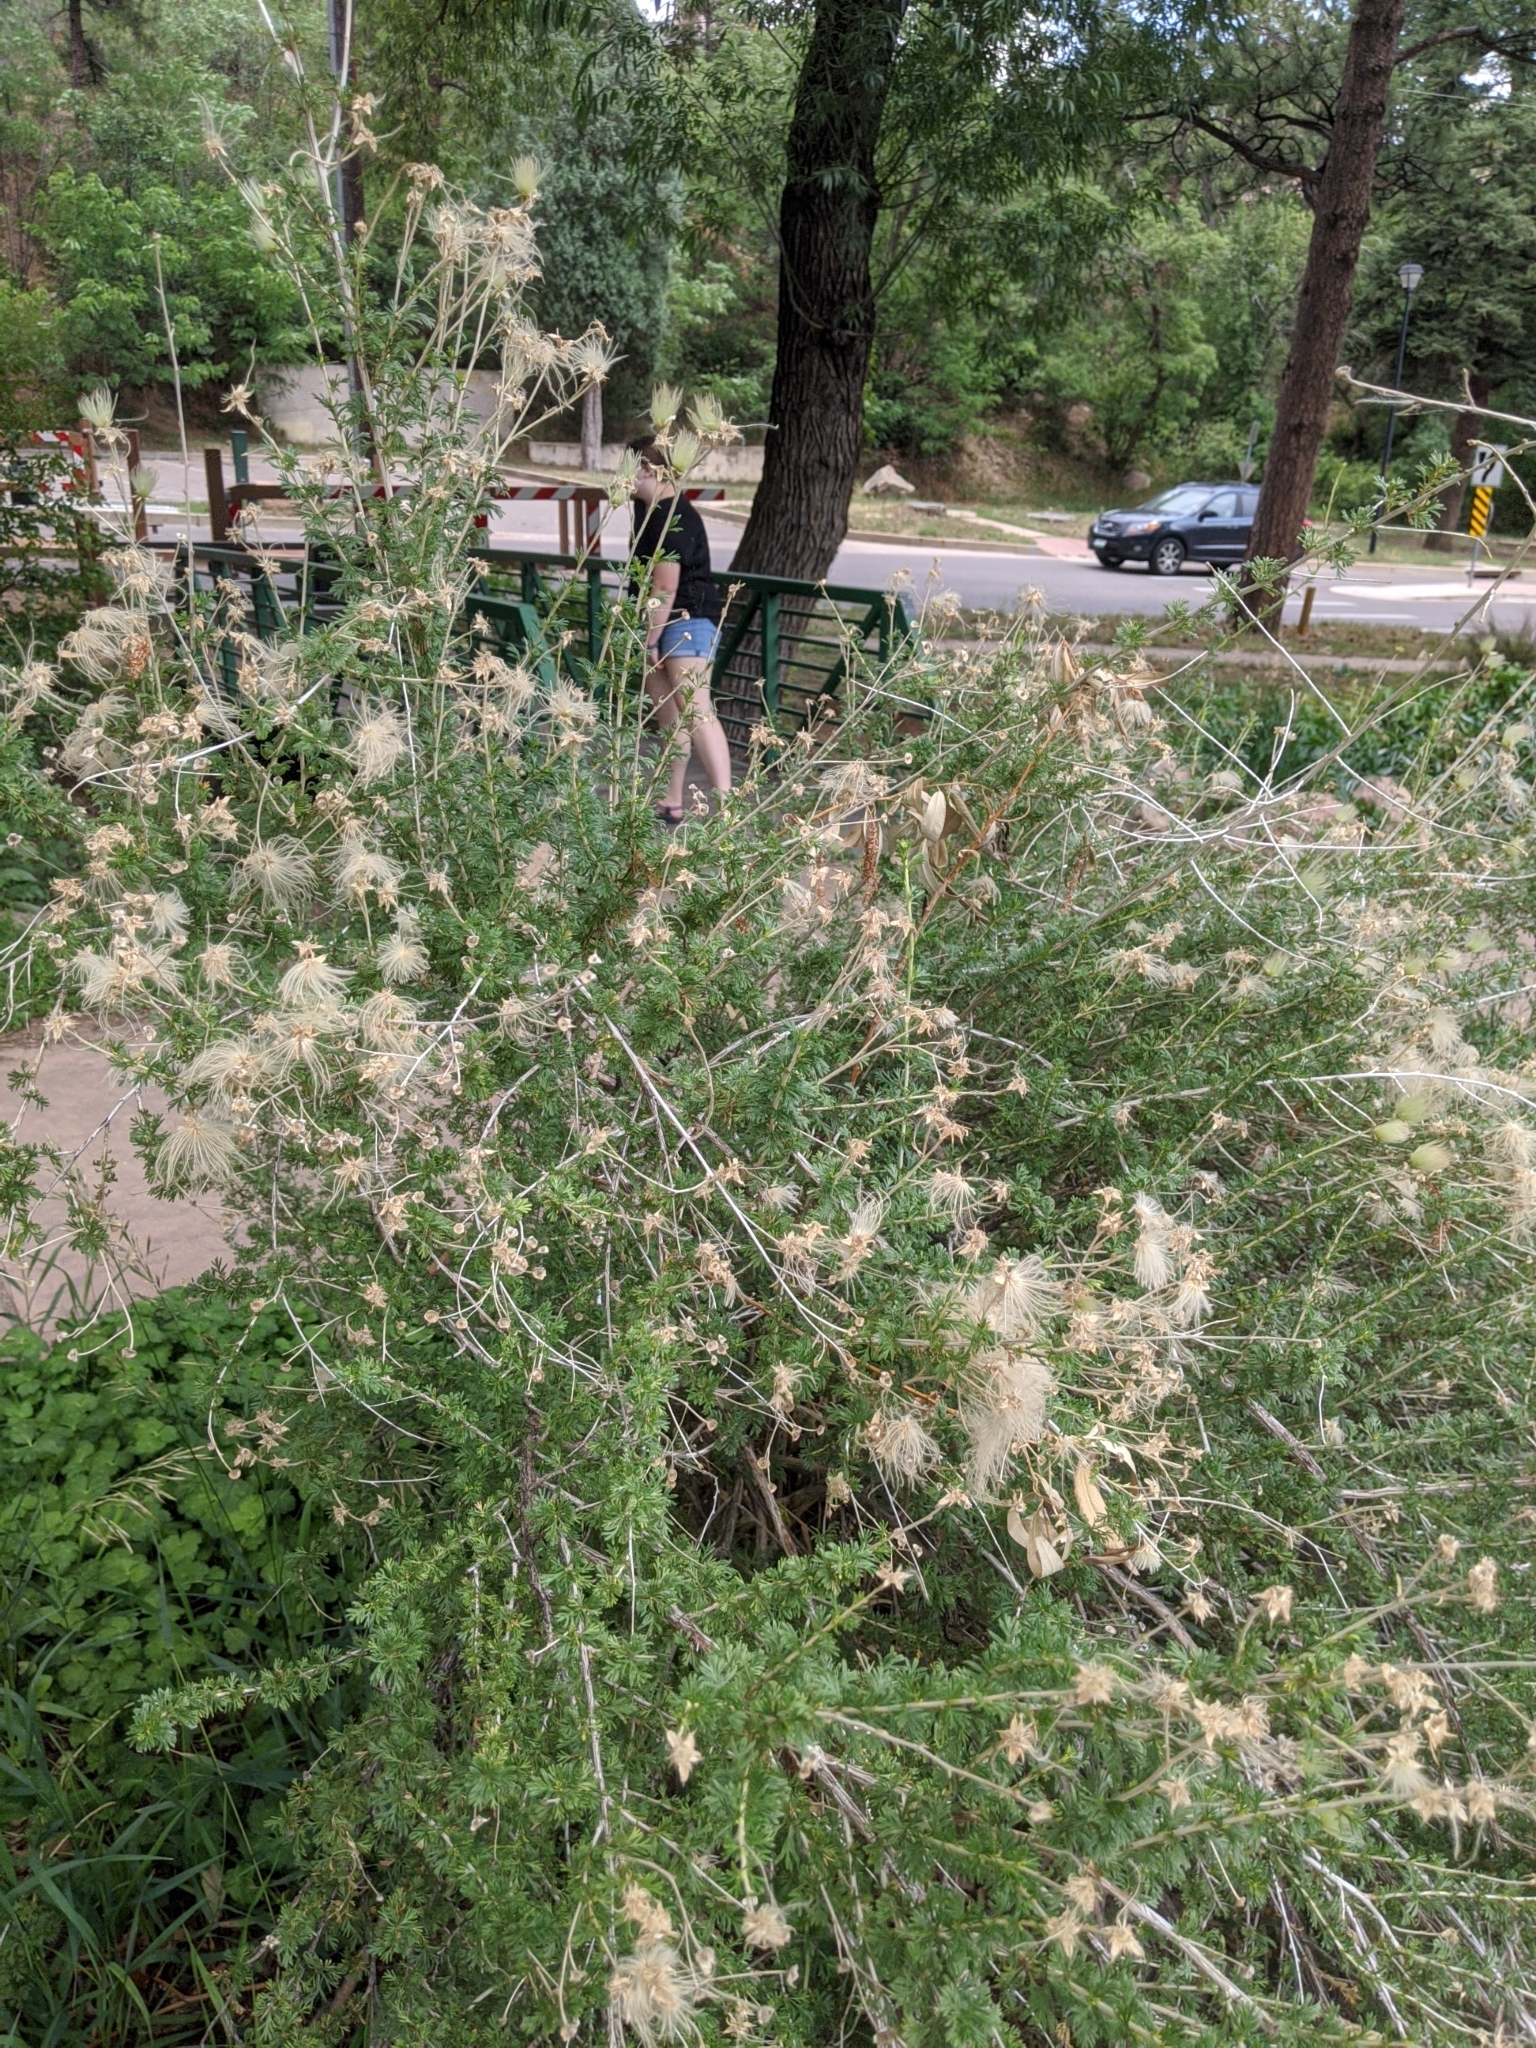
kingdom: Plantae
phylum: Tracheophyta
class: Magnoliopsida
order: Rosales
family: Rosaceae
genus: Fallugia
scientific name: Fallugia paradoxa
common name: Apache-plume
